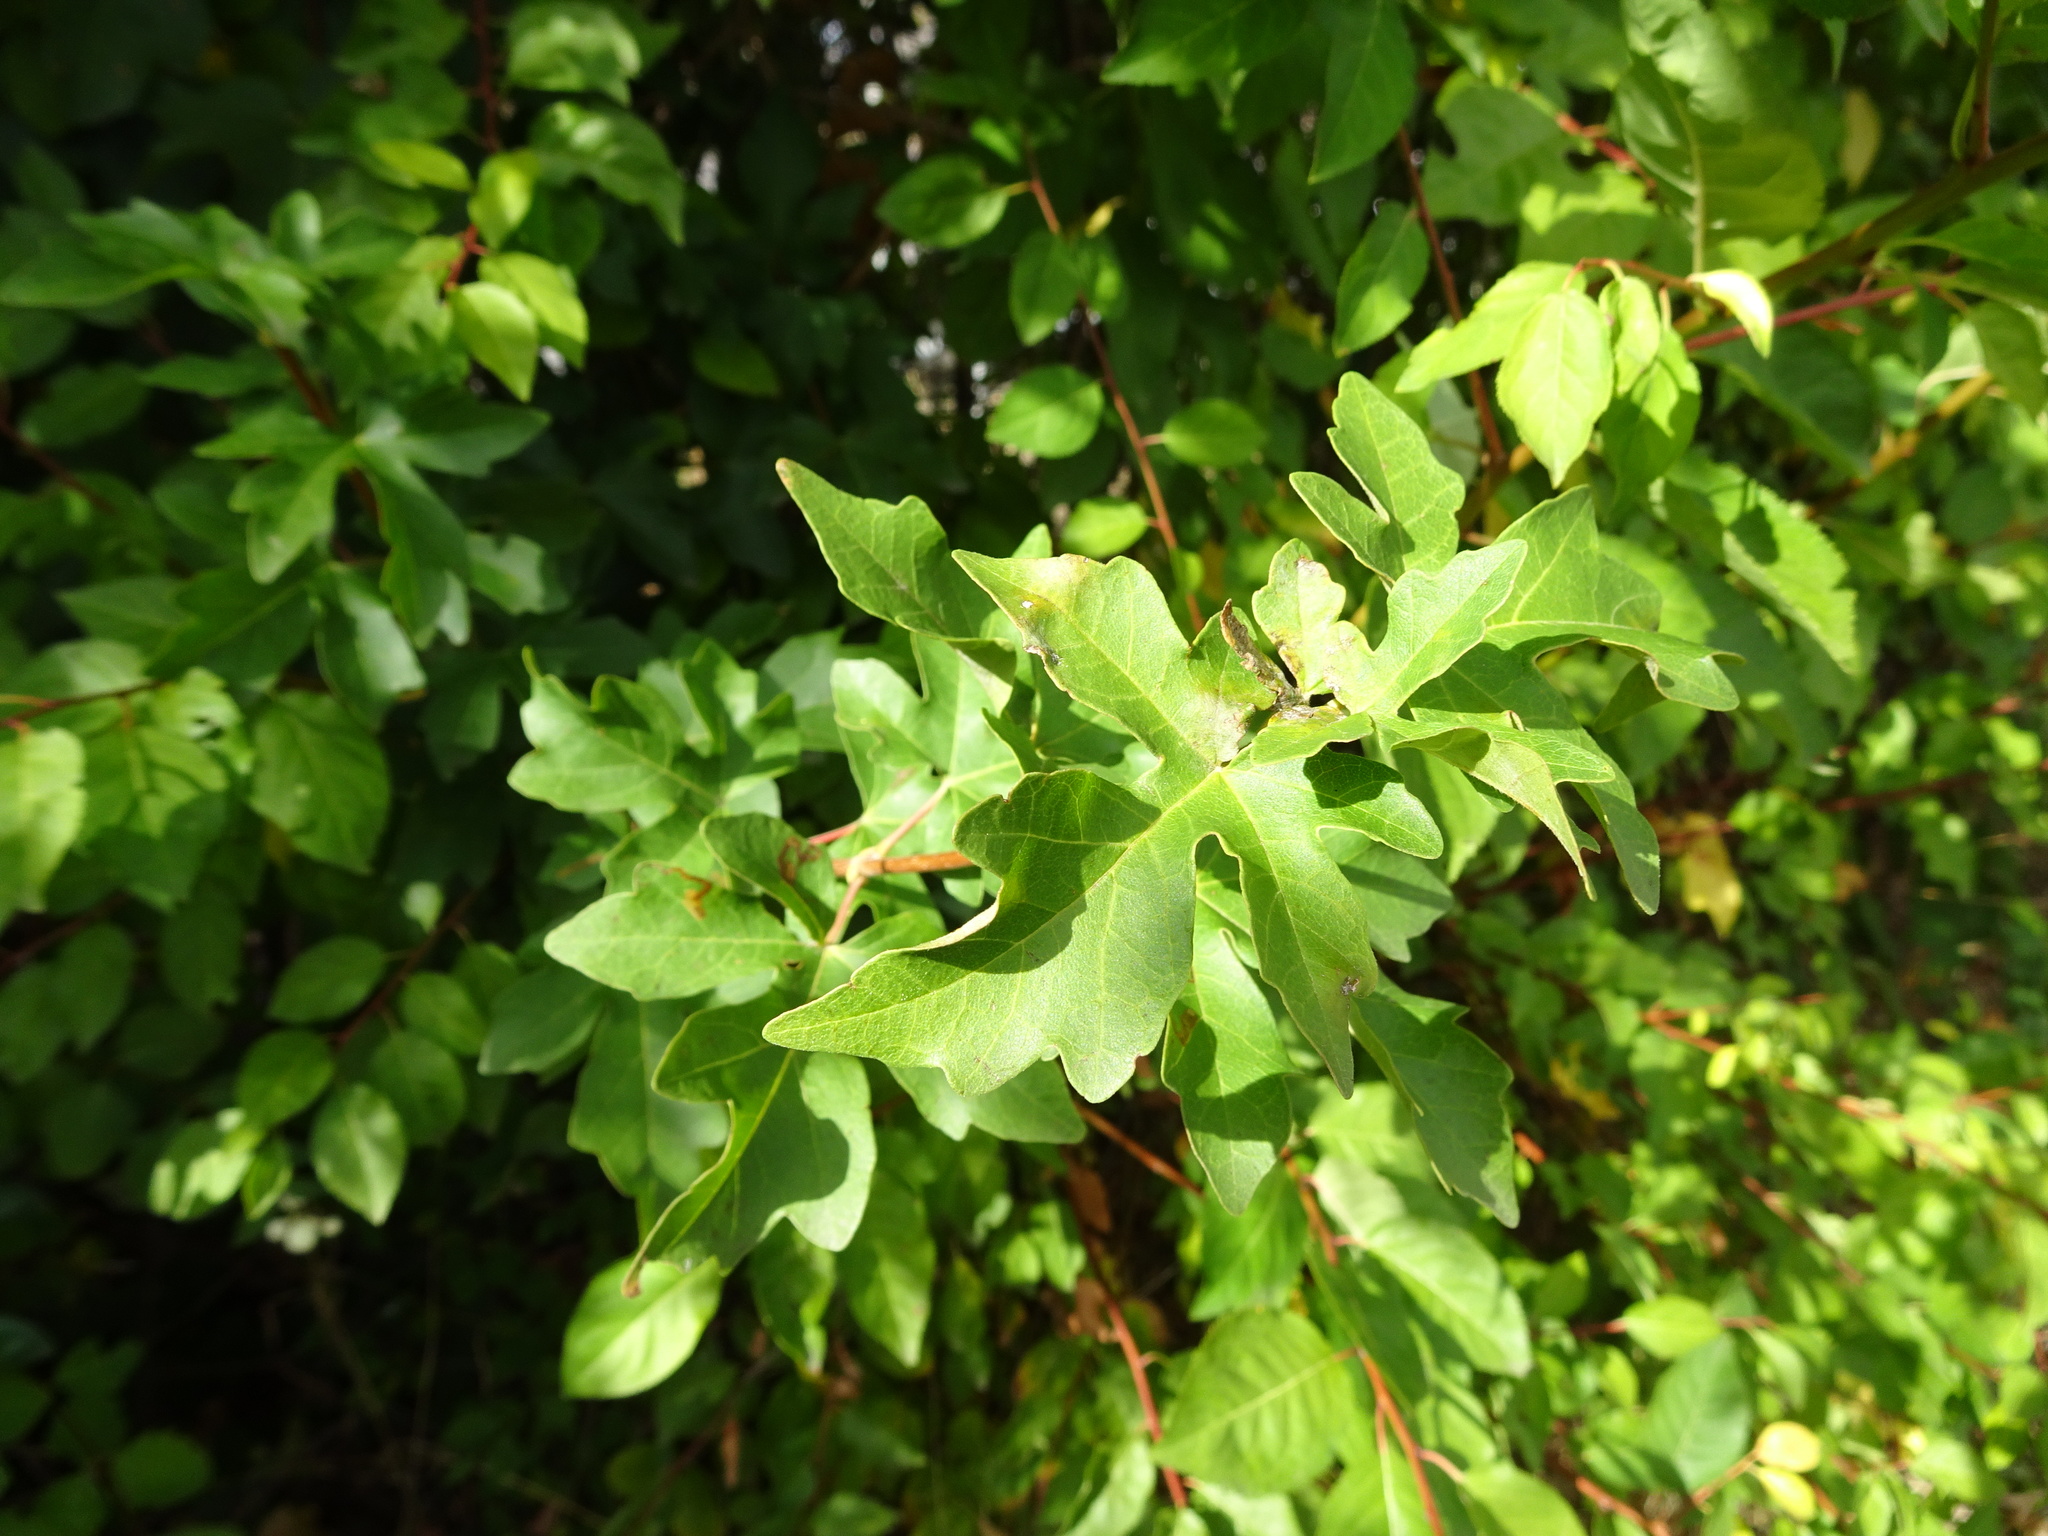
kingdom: Plantae
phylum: Tracheophyta
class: Magnoliopsida
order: Sapindales
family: Sapindaceae
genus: Acer
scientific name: Acer campestre
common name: Field maple
